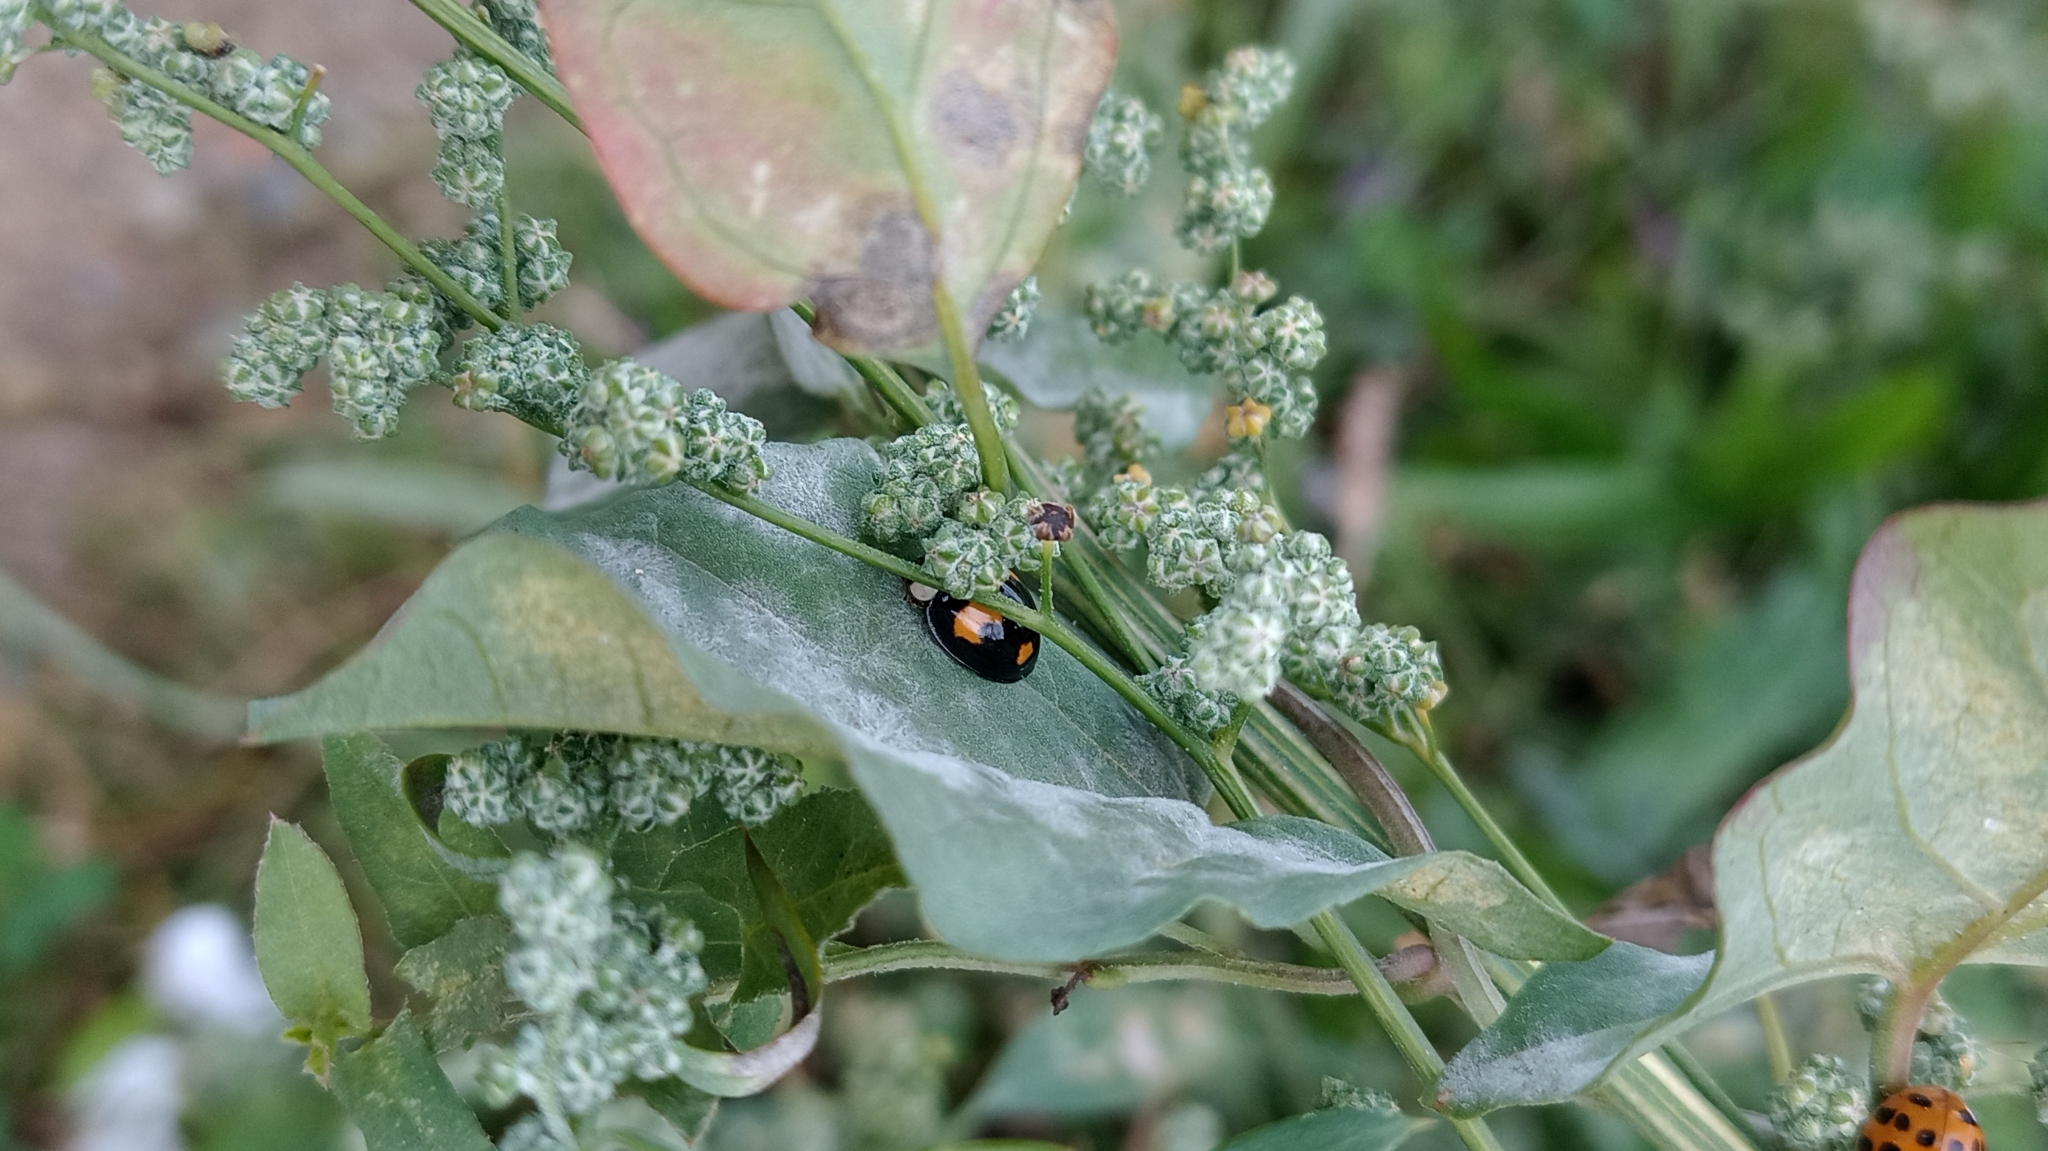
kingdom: Animalia
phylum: Arthropoda
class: Insecta
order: Coleoptera
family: Coccinellidae
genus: Harmonia
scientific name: Harmonia axyridis
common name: Harlequin ladybird
